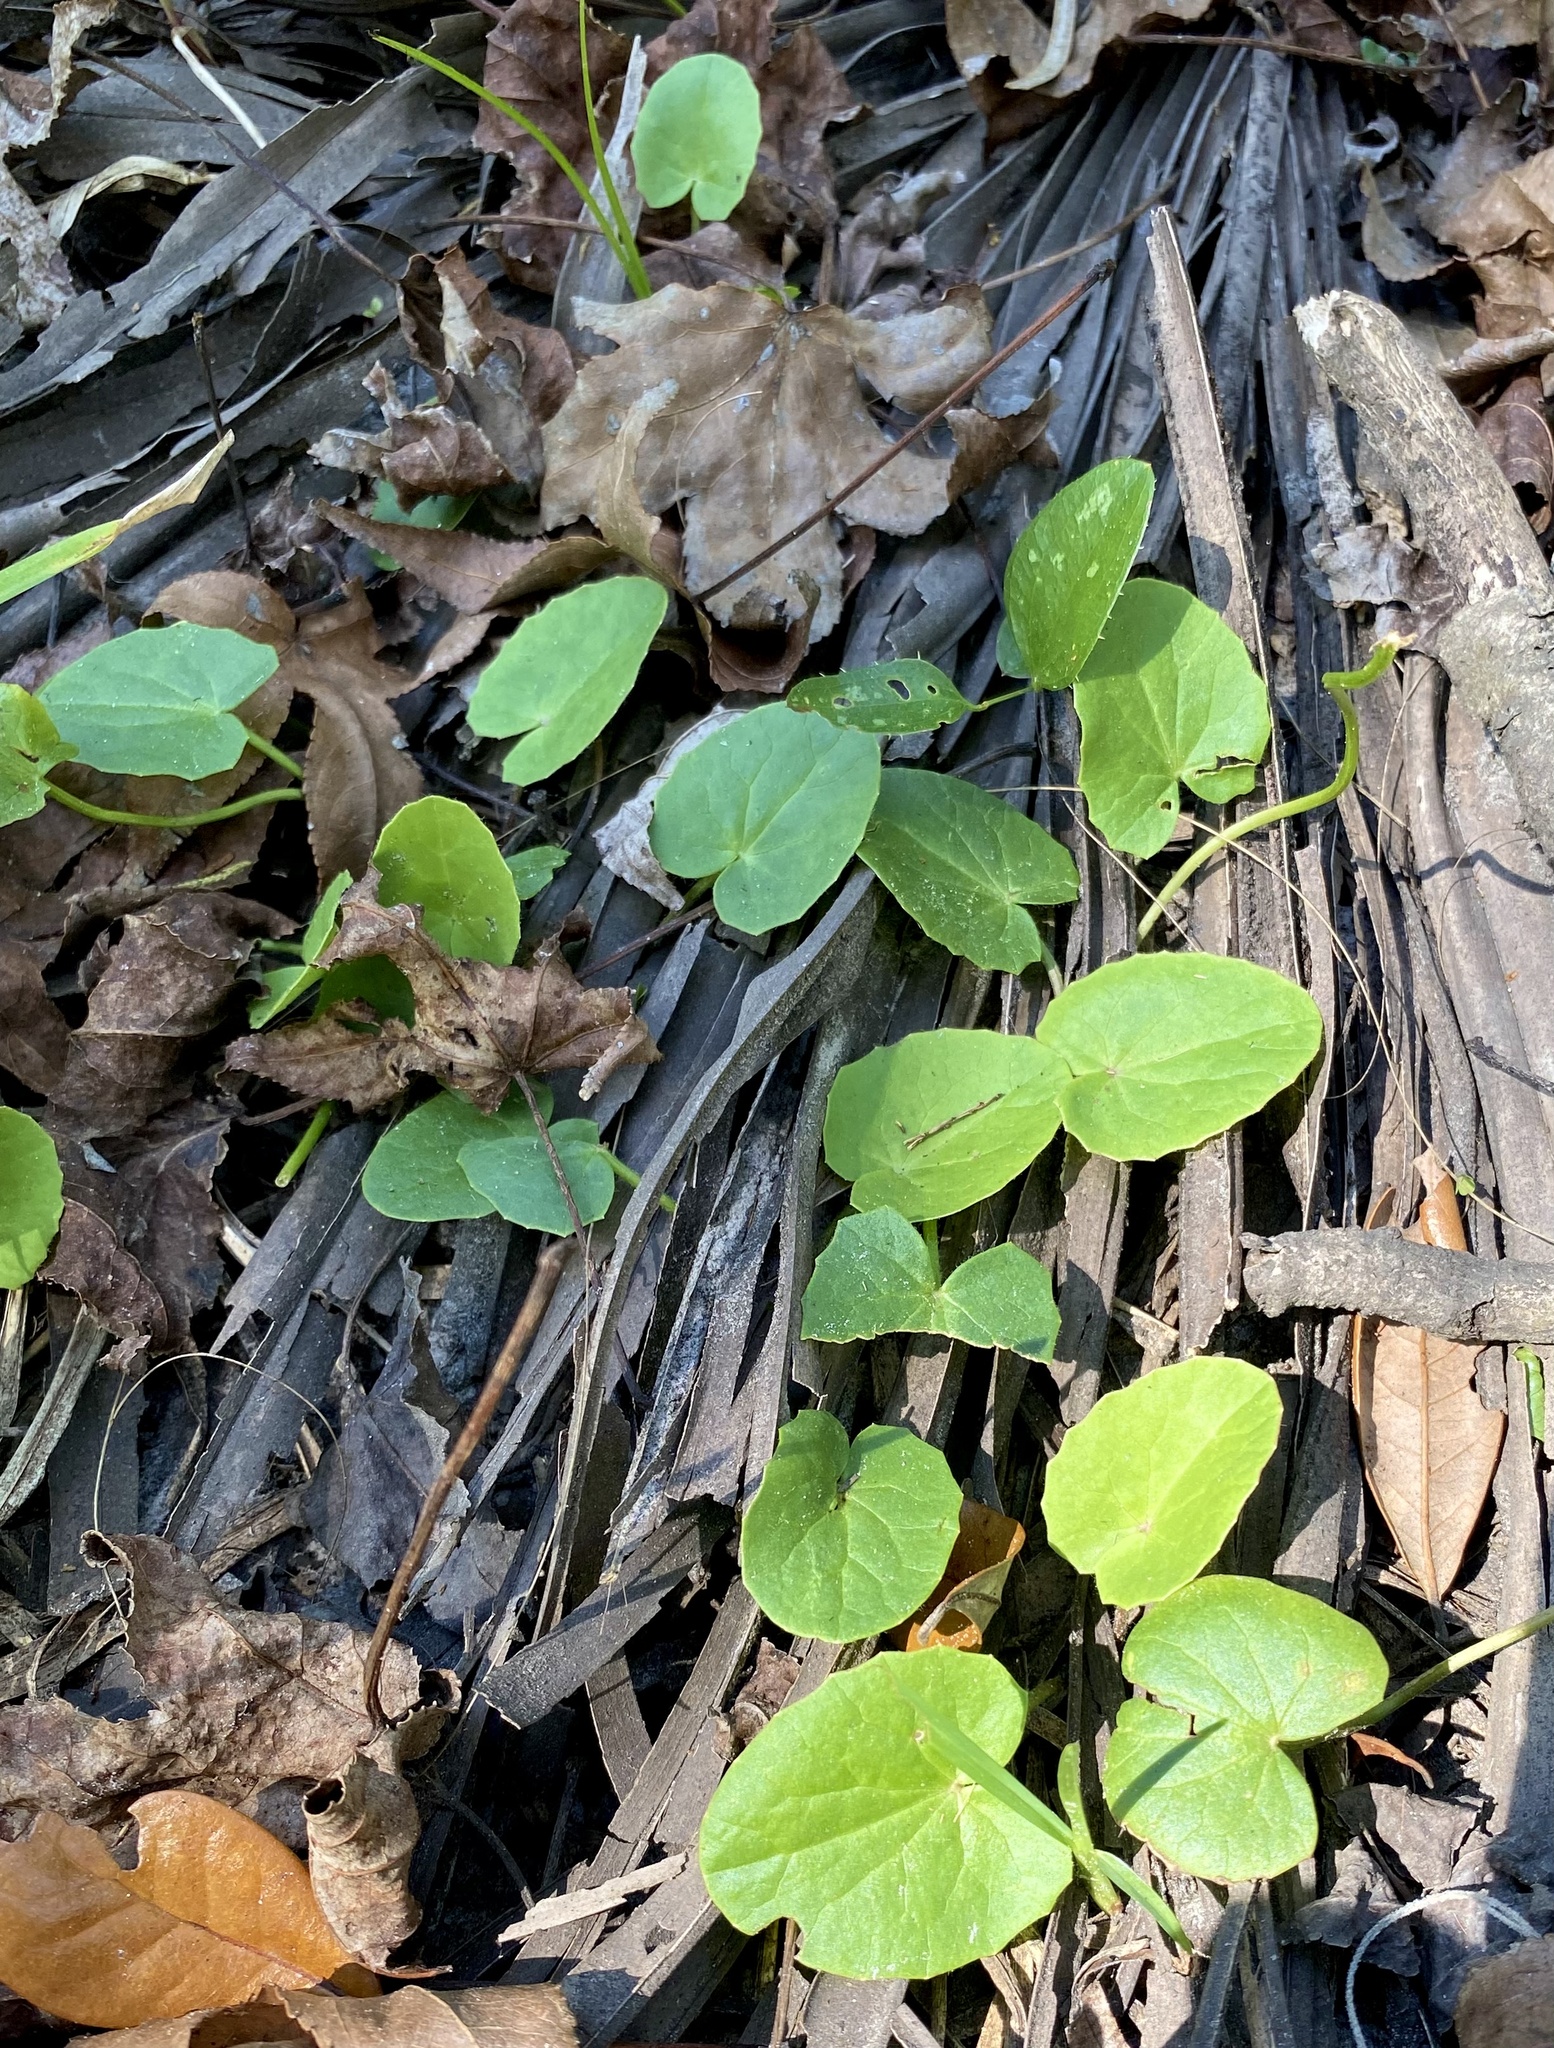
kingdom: Plantae
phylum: Tracheophyta
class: Magnoliopsida
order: Apiales
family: Apiaceae
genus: Centella
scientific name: Centella erecta
